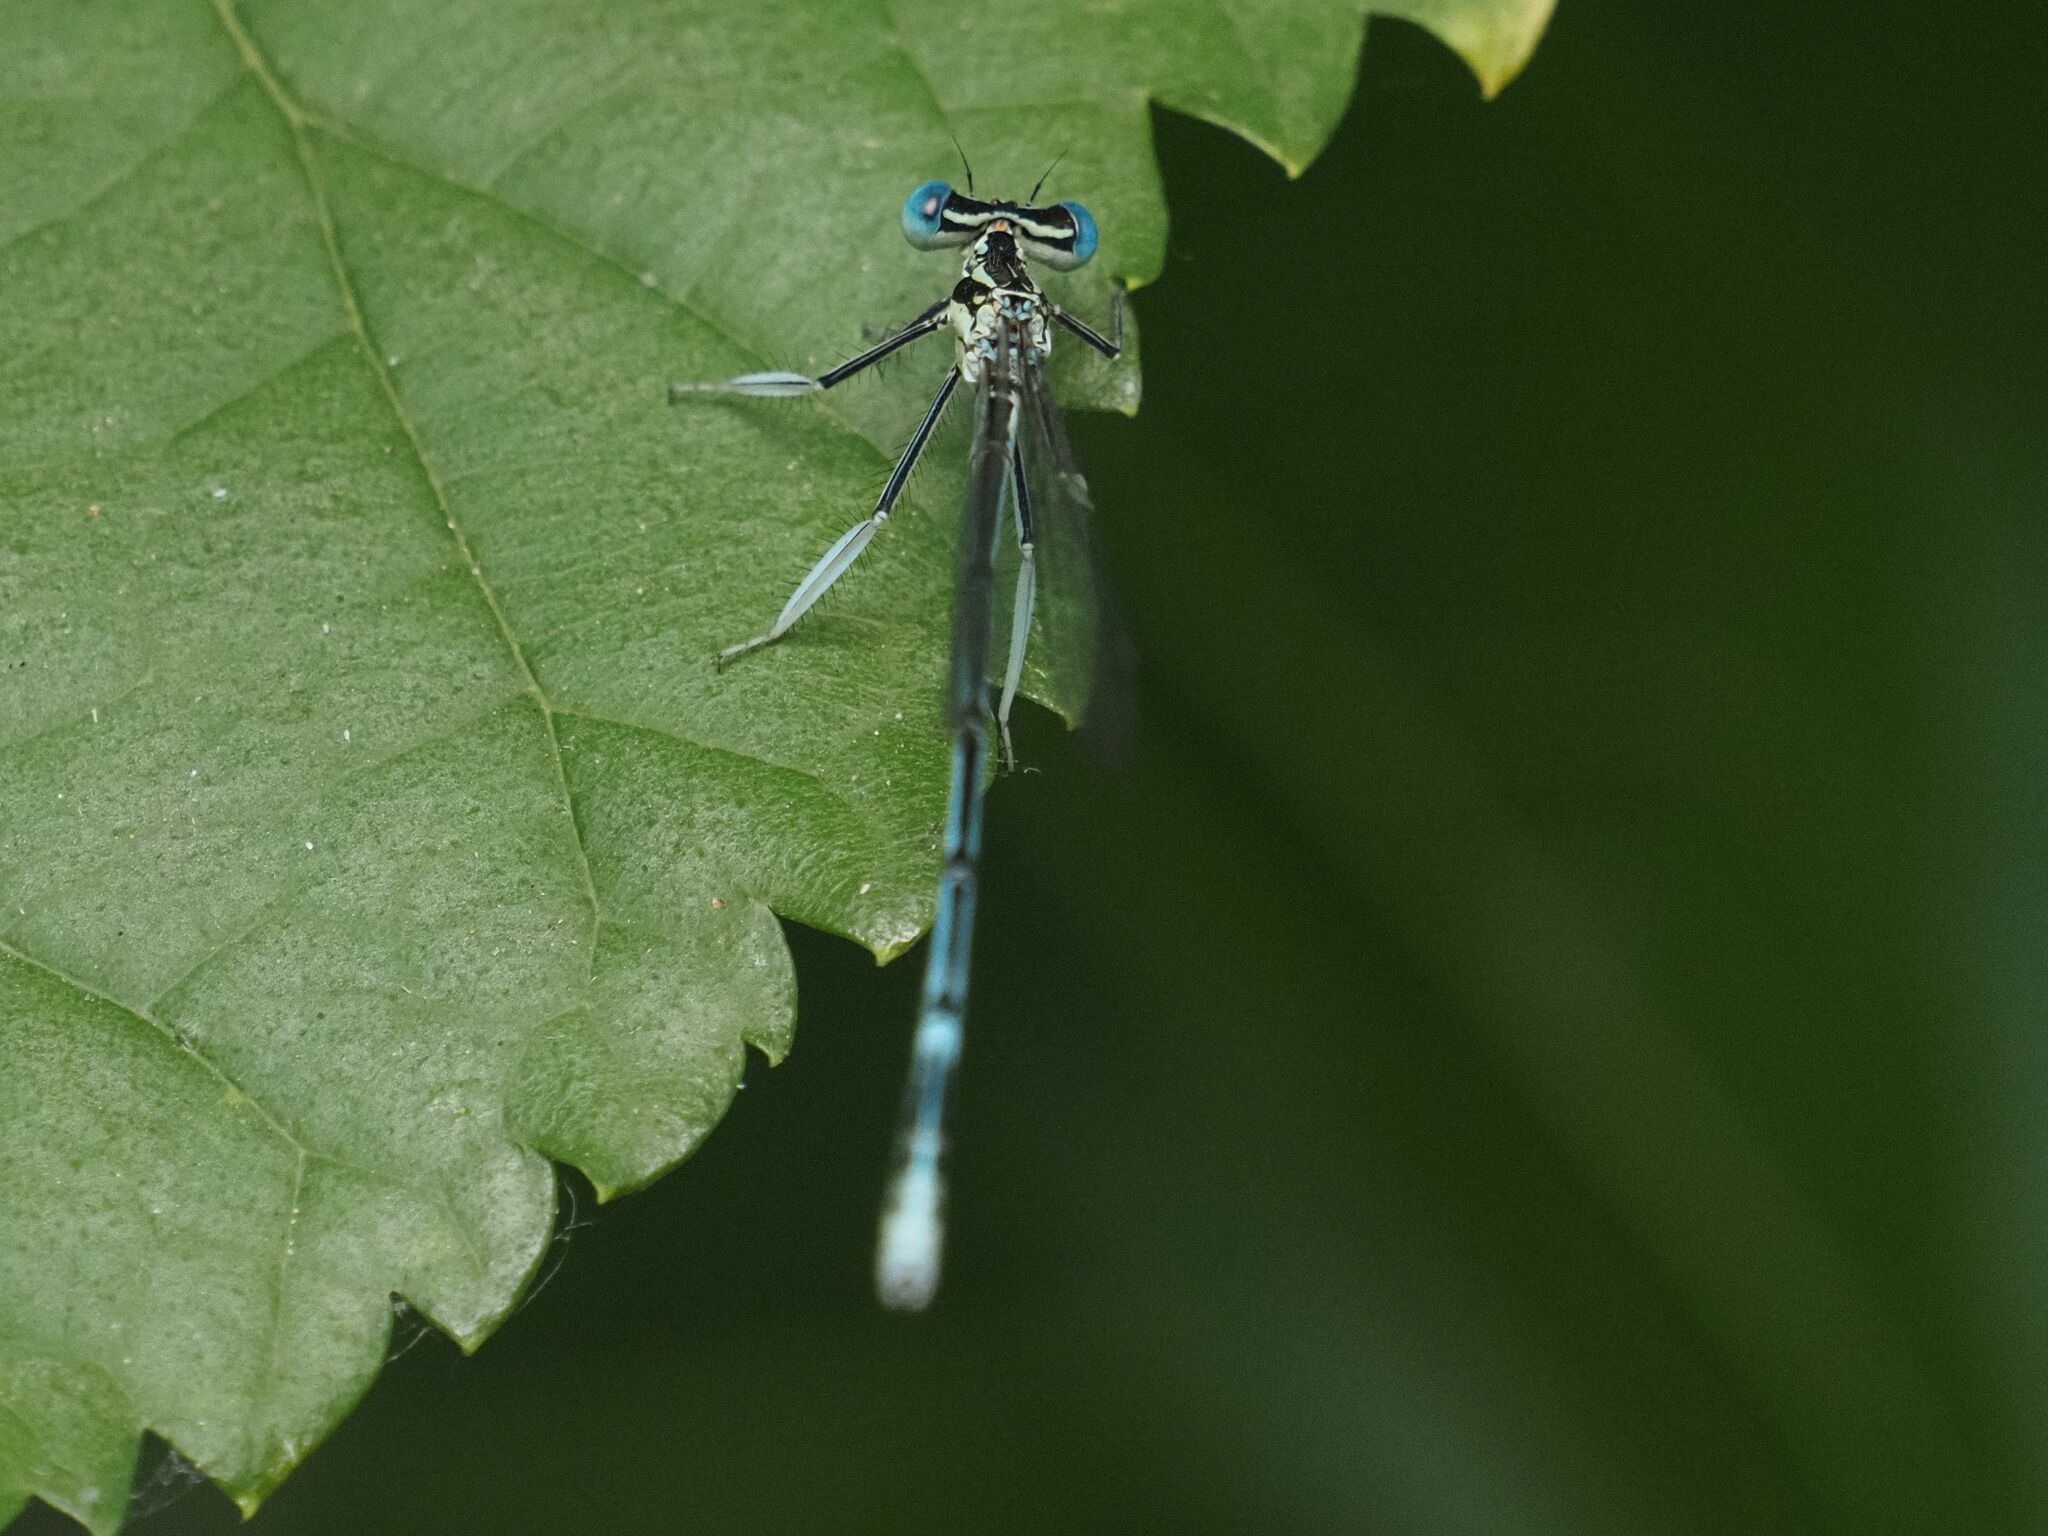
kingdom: Animalia
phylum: Arthropoda
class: Insecta
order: Odonata
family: Platycnemididae
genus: Platycnemis
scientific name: Platycnemis pennipes
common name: White-legged damselfly
